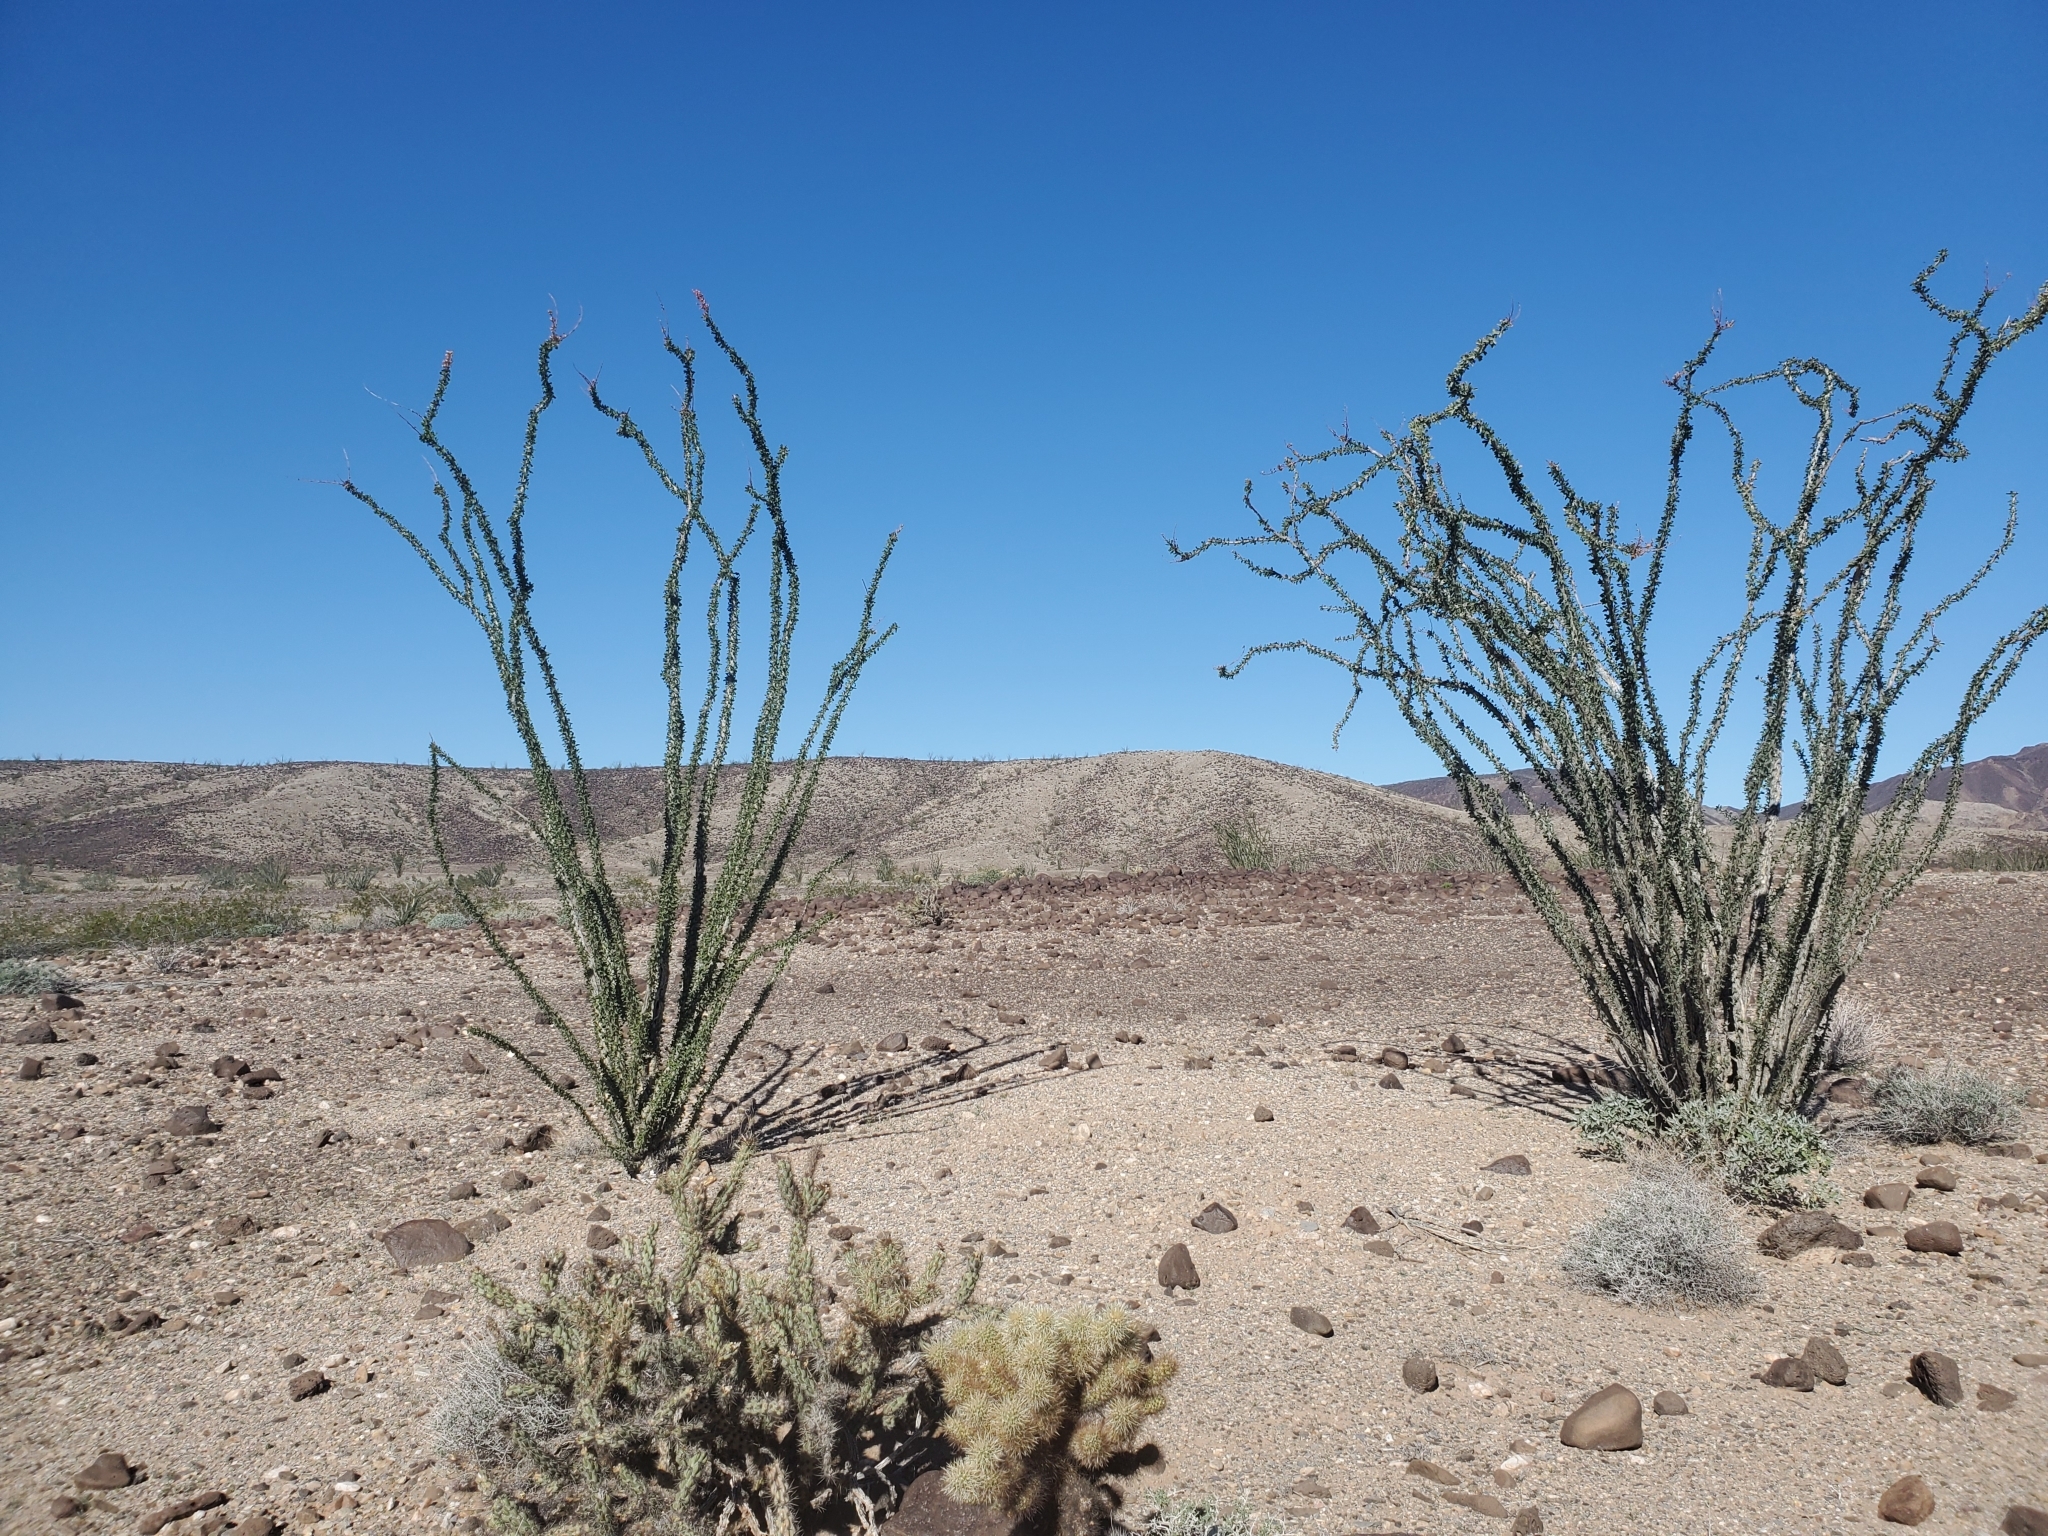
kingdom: Plantae
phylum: Tracheophyta
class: Magnoliopsida
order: Ericales
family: Fouquieriaceae
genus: Fouquieria
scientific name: Fouquieria splendens
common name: Vine-cactus
